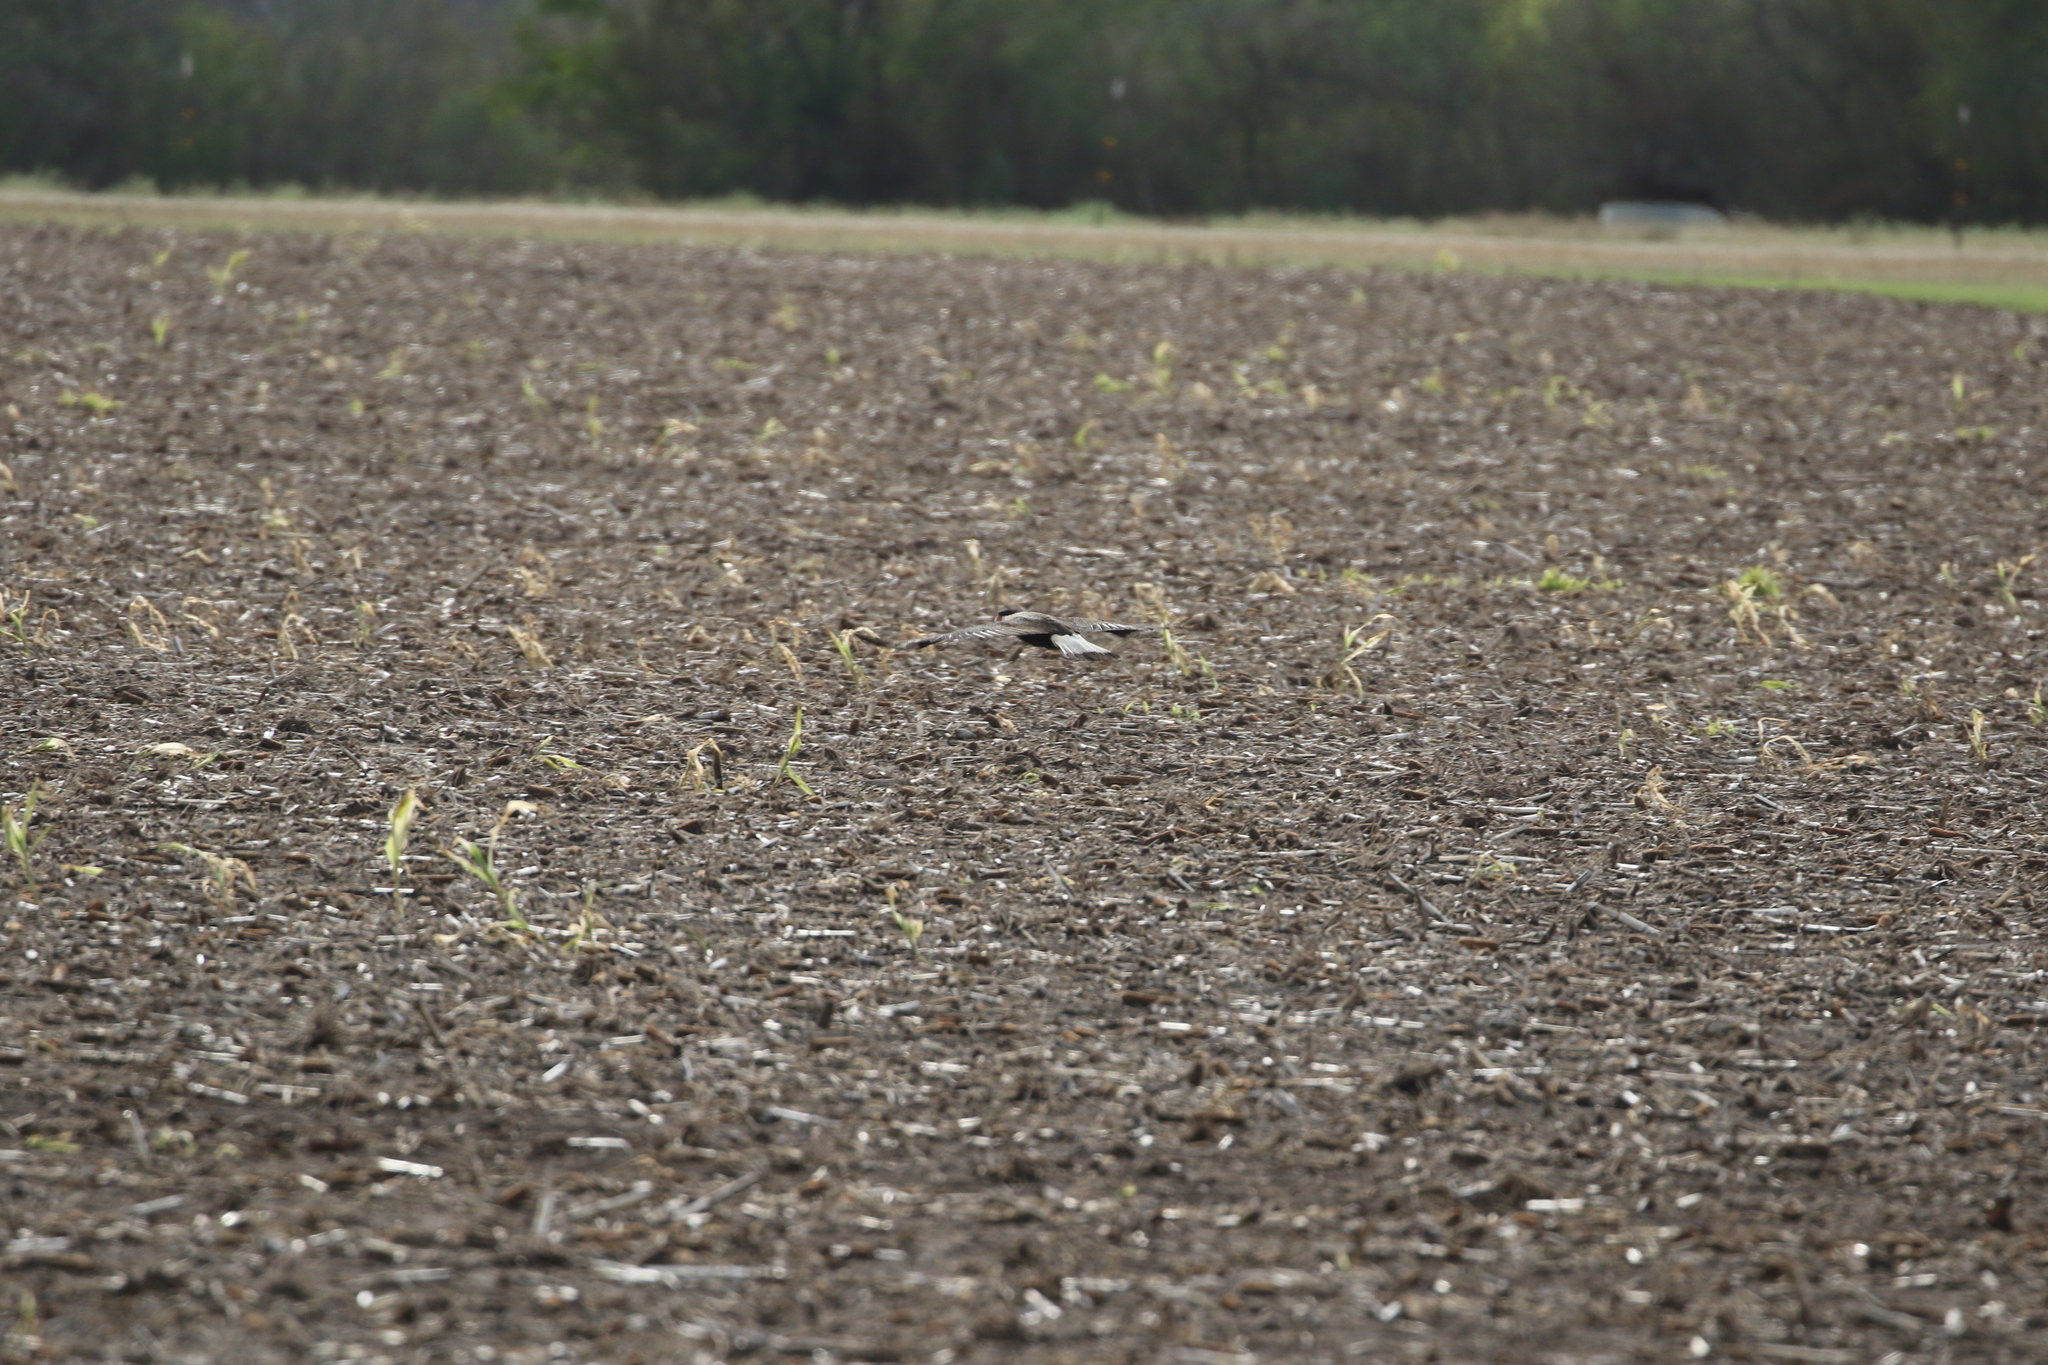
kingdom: Animalia
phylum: Chordata
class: Aves
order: Falconiformes
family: Falconidae
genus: Caracara
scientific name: Caracara plancus
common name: Southern caracara
